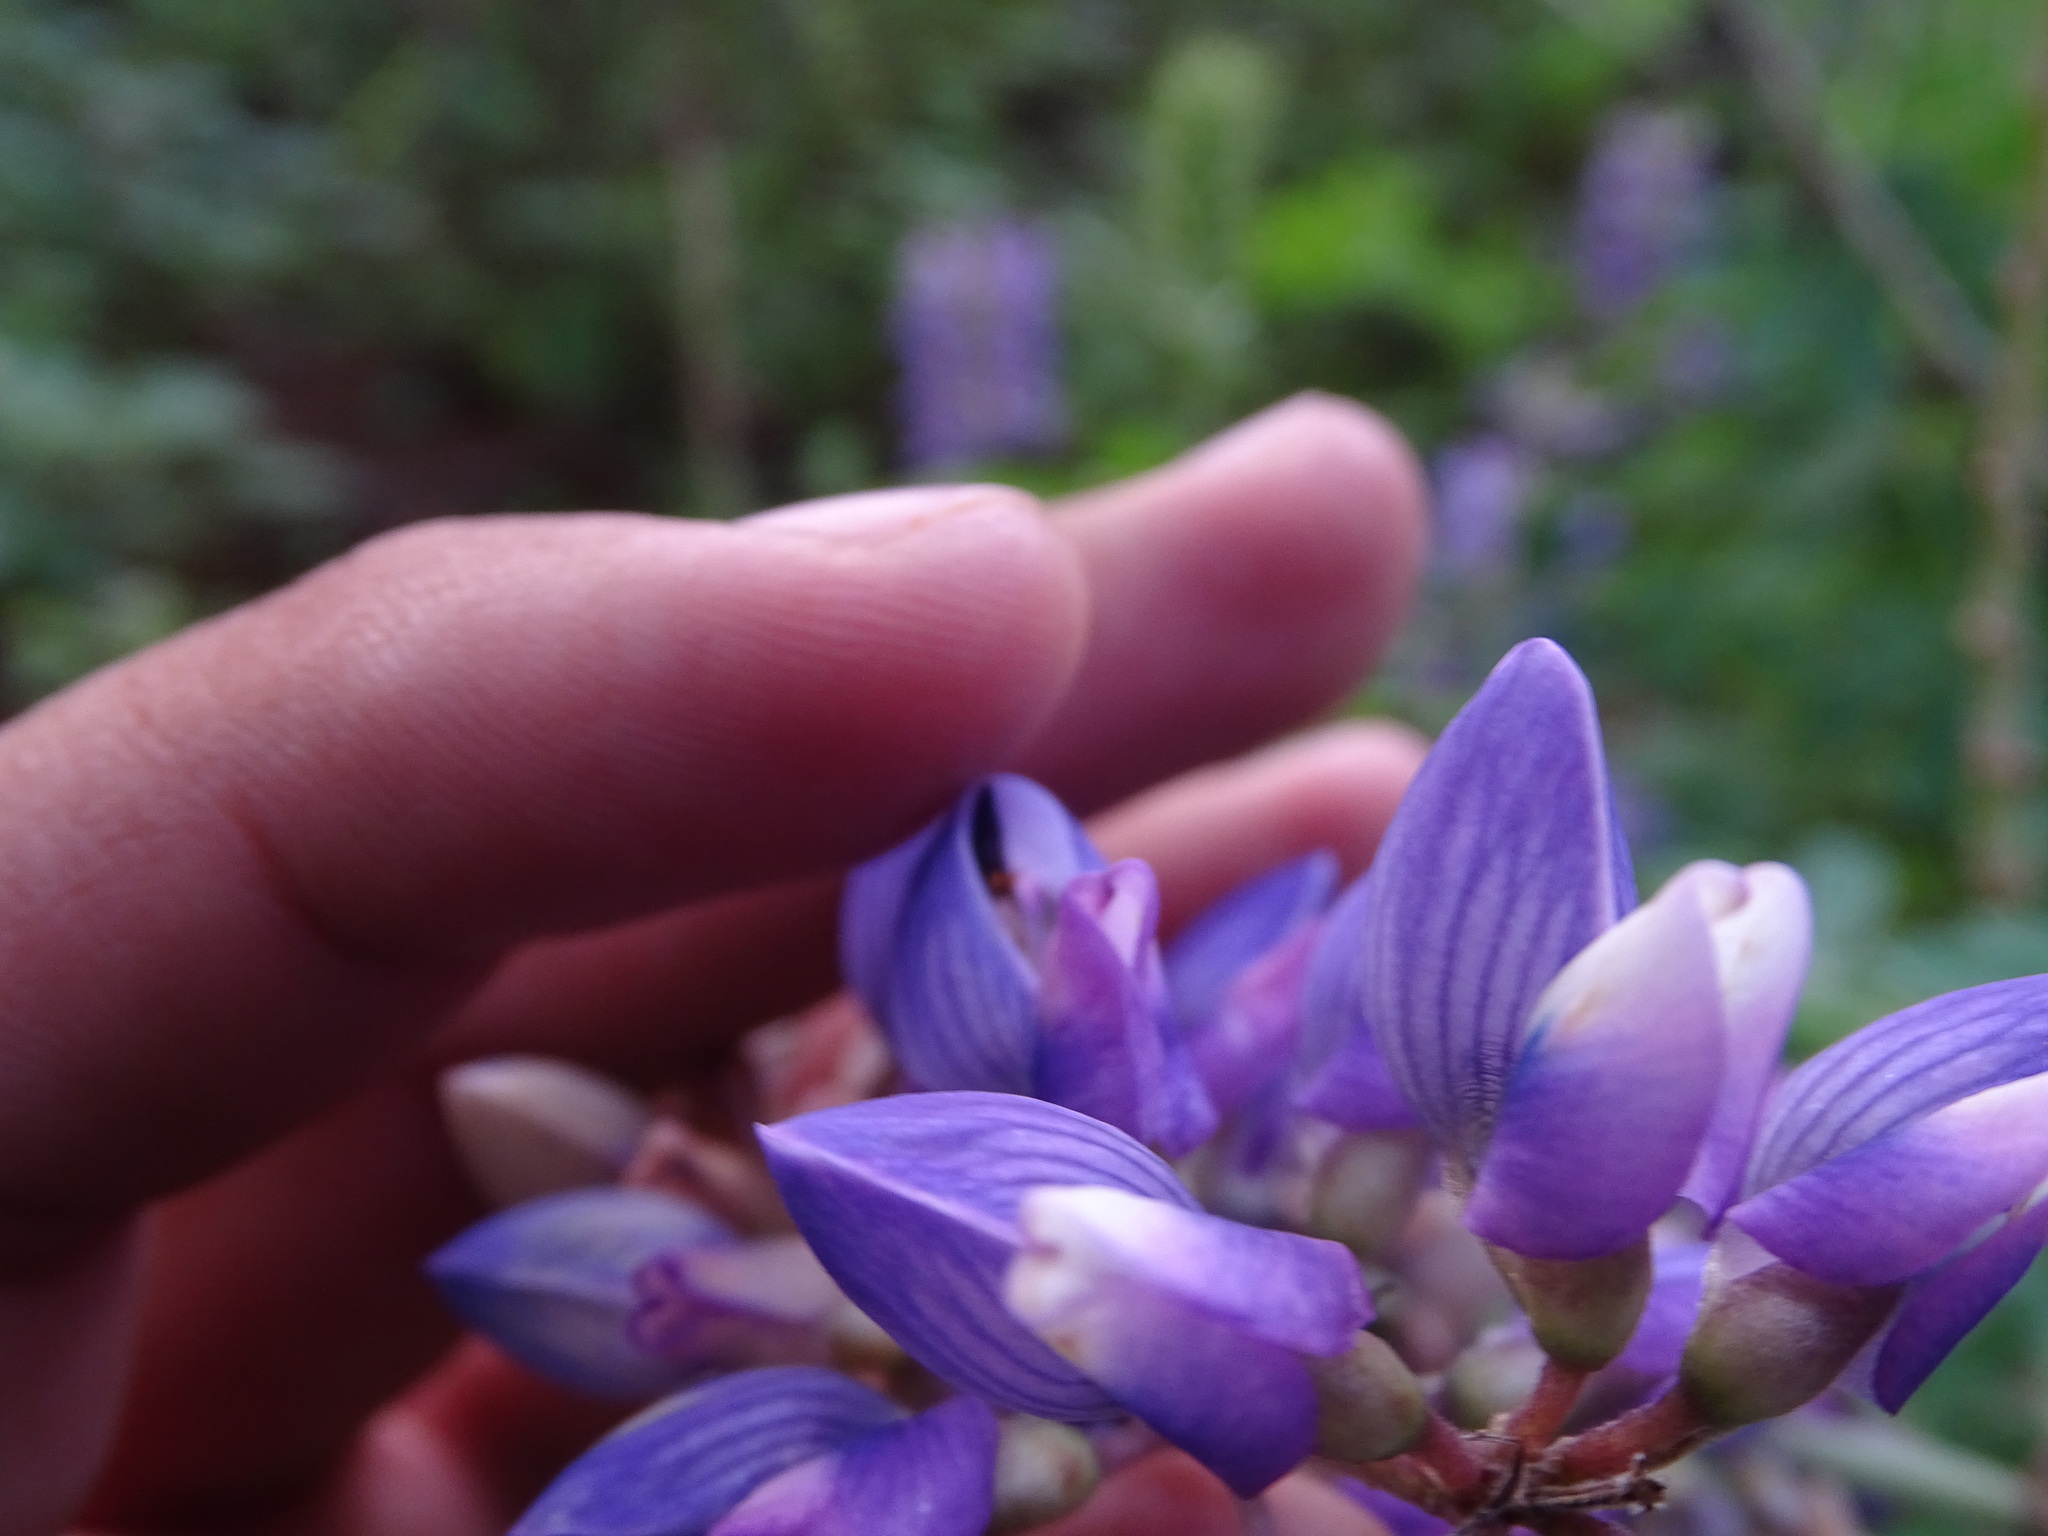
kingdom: Plantae
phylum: Tracheophyta
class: Magnoliopsida
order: Fabales
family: Fabaceae
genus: Lupinus
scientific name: Lupinus latifolius
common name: Broad-leaved lupine
